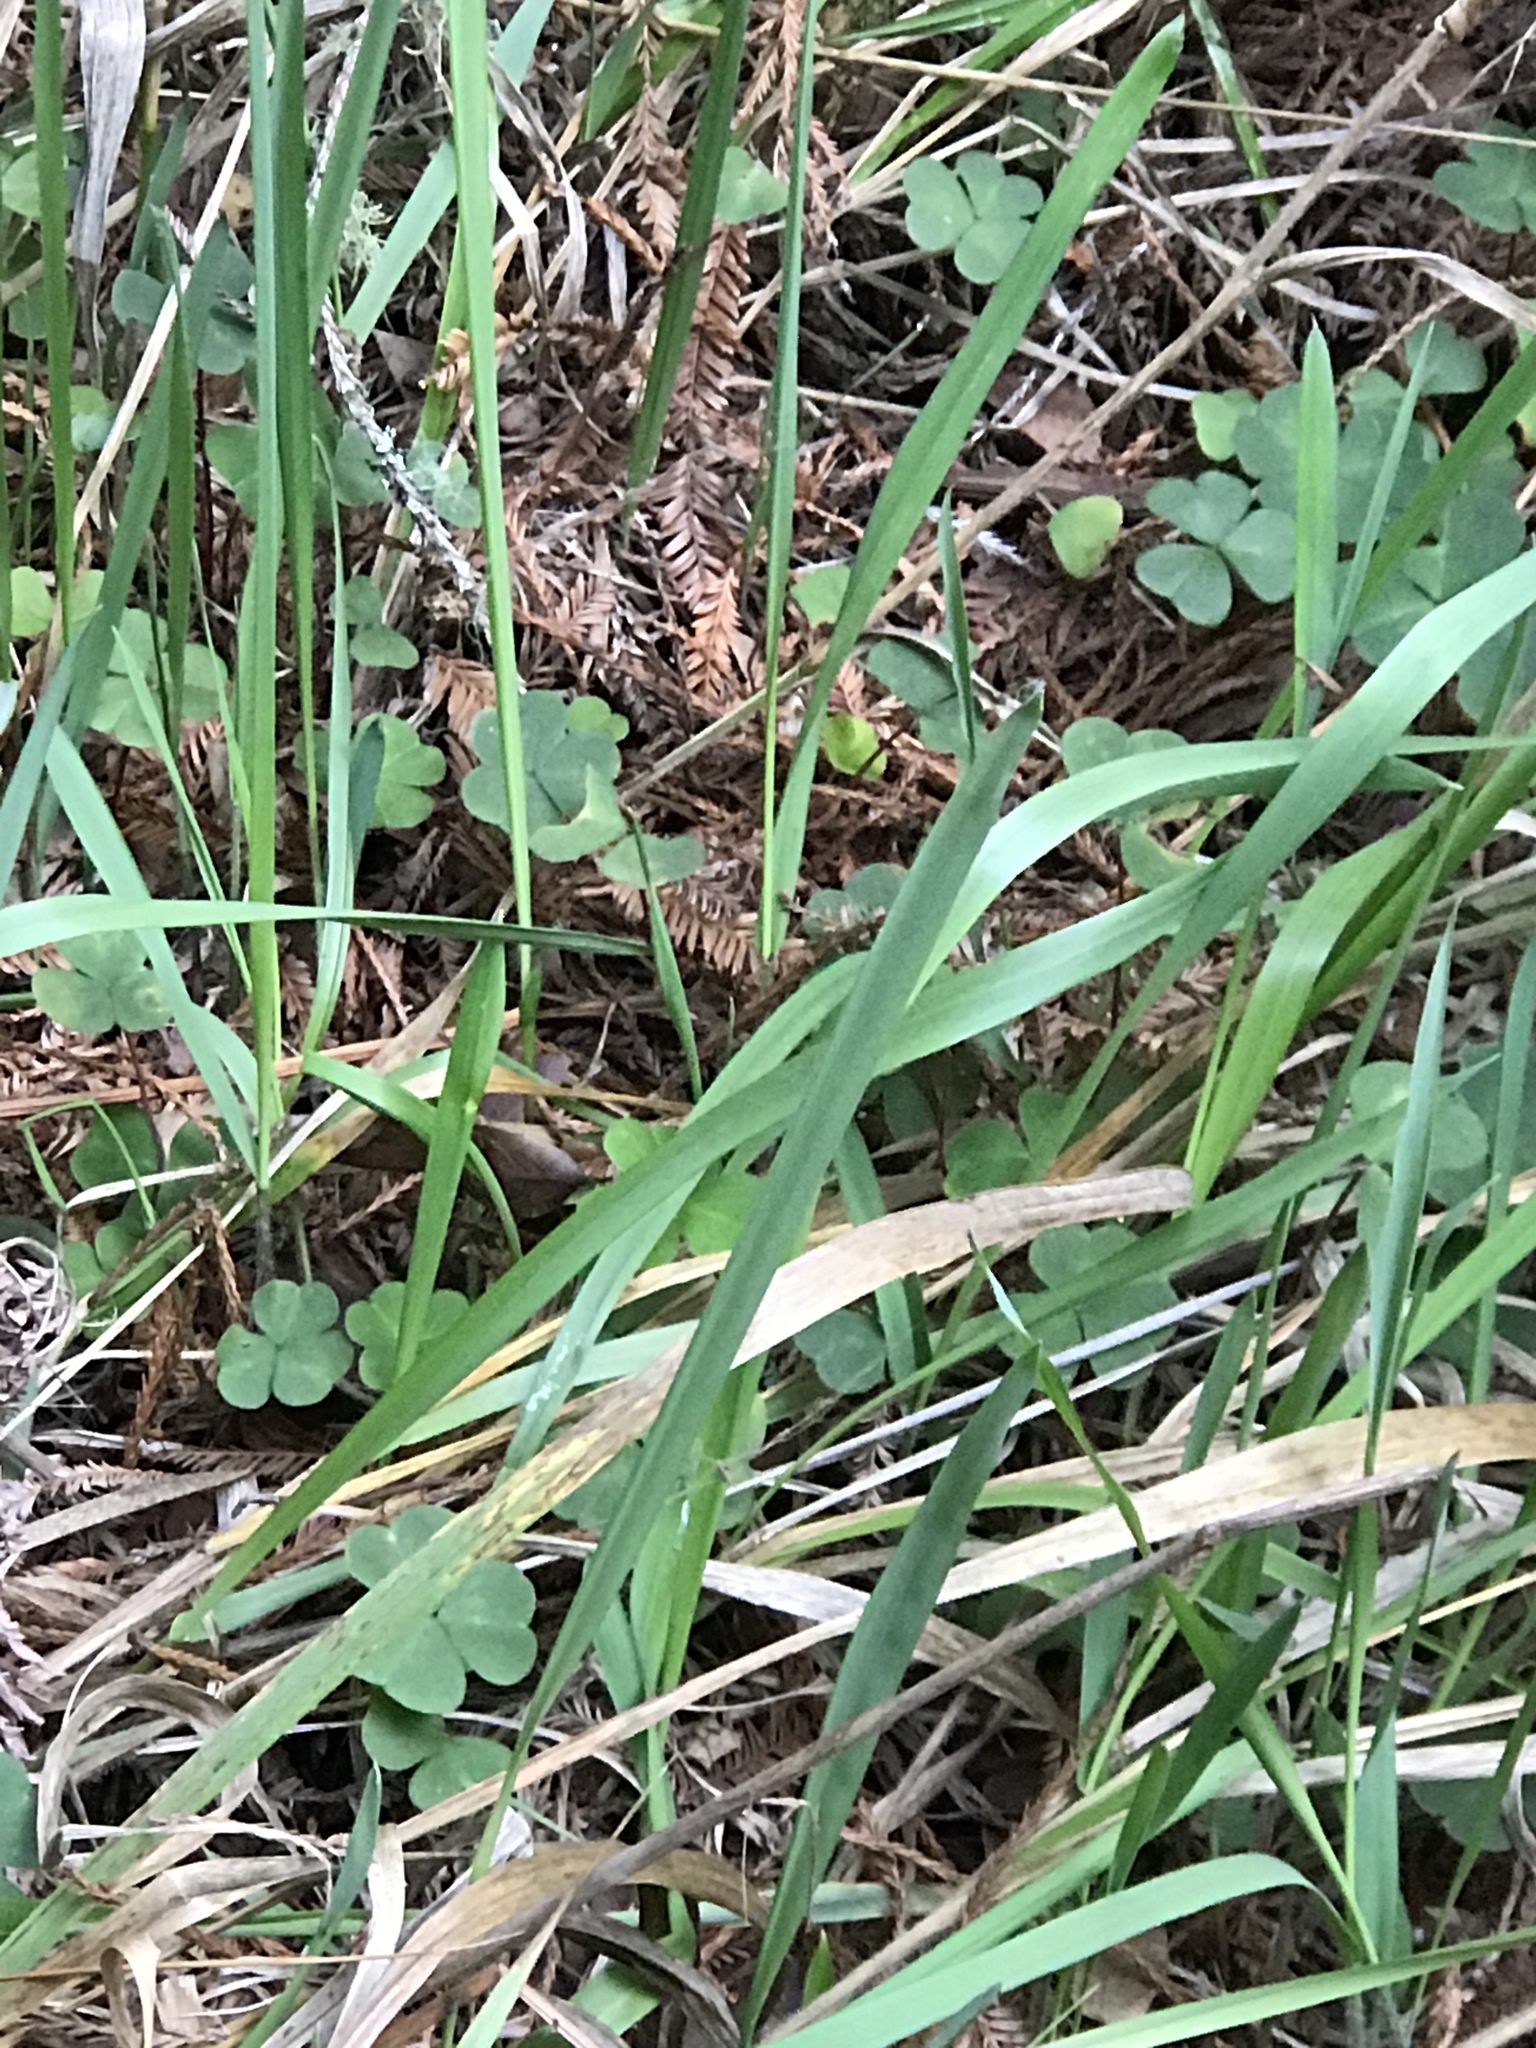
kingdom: Plantae
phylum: Tracheophyta
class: Magnoliopsida
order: Oxalidales
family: Oxalidaceae
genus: Oxalis
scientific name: Oxalis oregana
